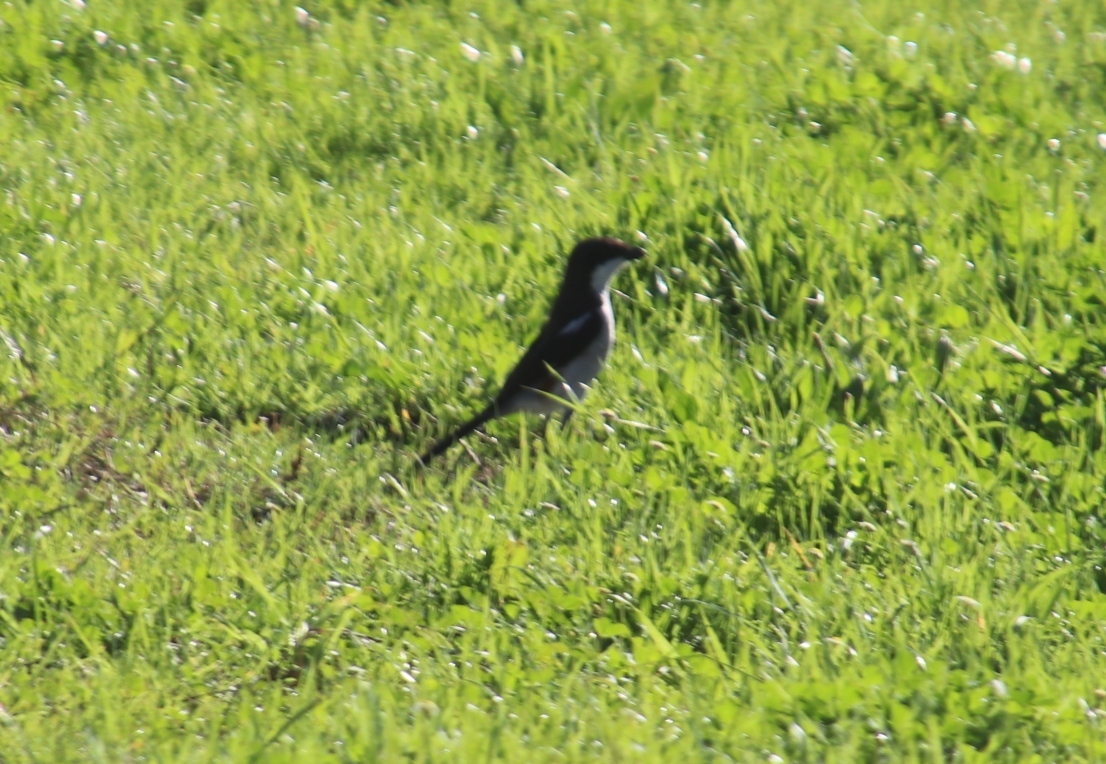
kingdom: Animalia
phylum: Chordata
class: Aves
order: Passeriformes
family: Laniidae
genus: Lanius
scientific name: Lanius collaris
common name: Southern fiscal
